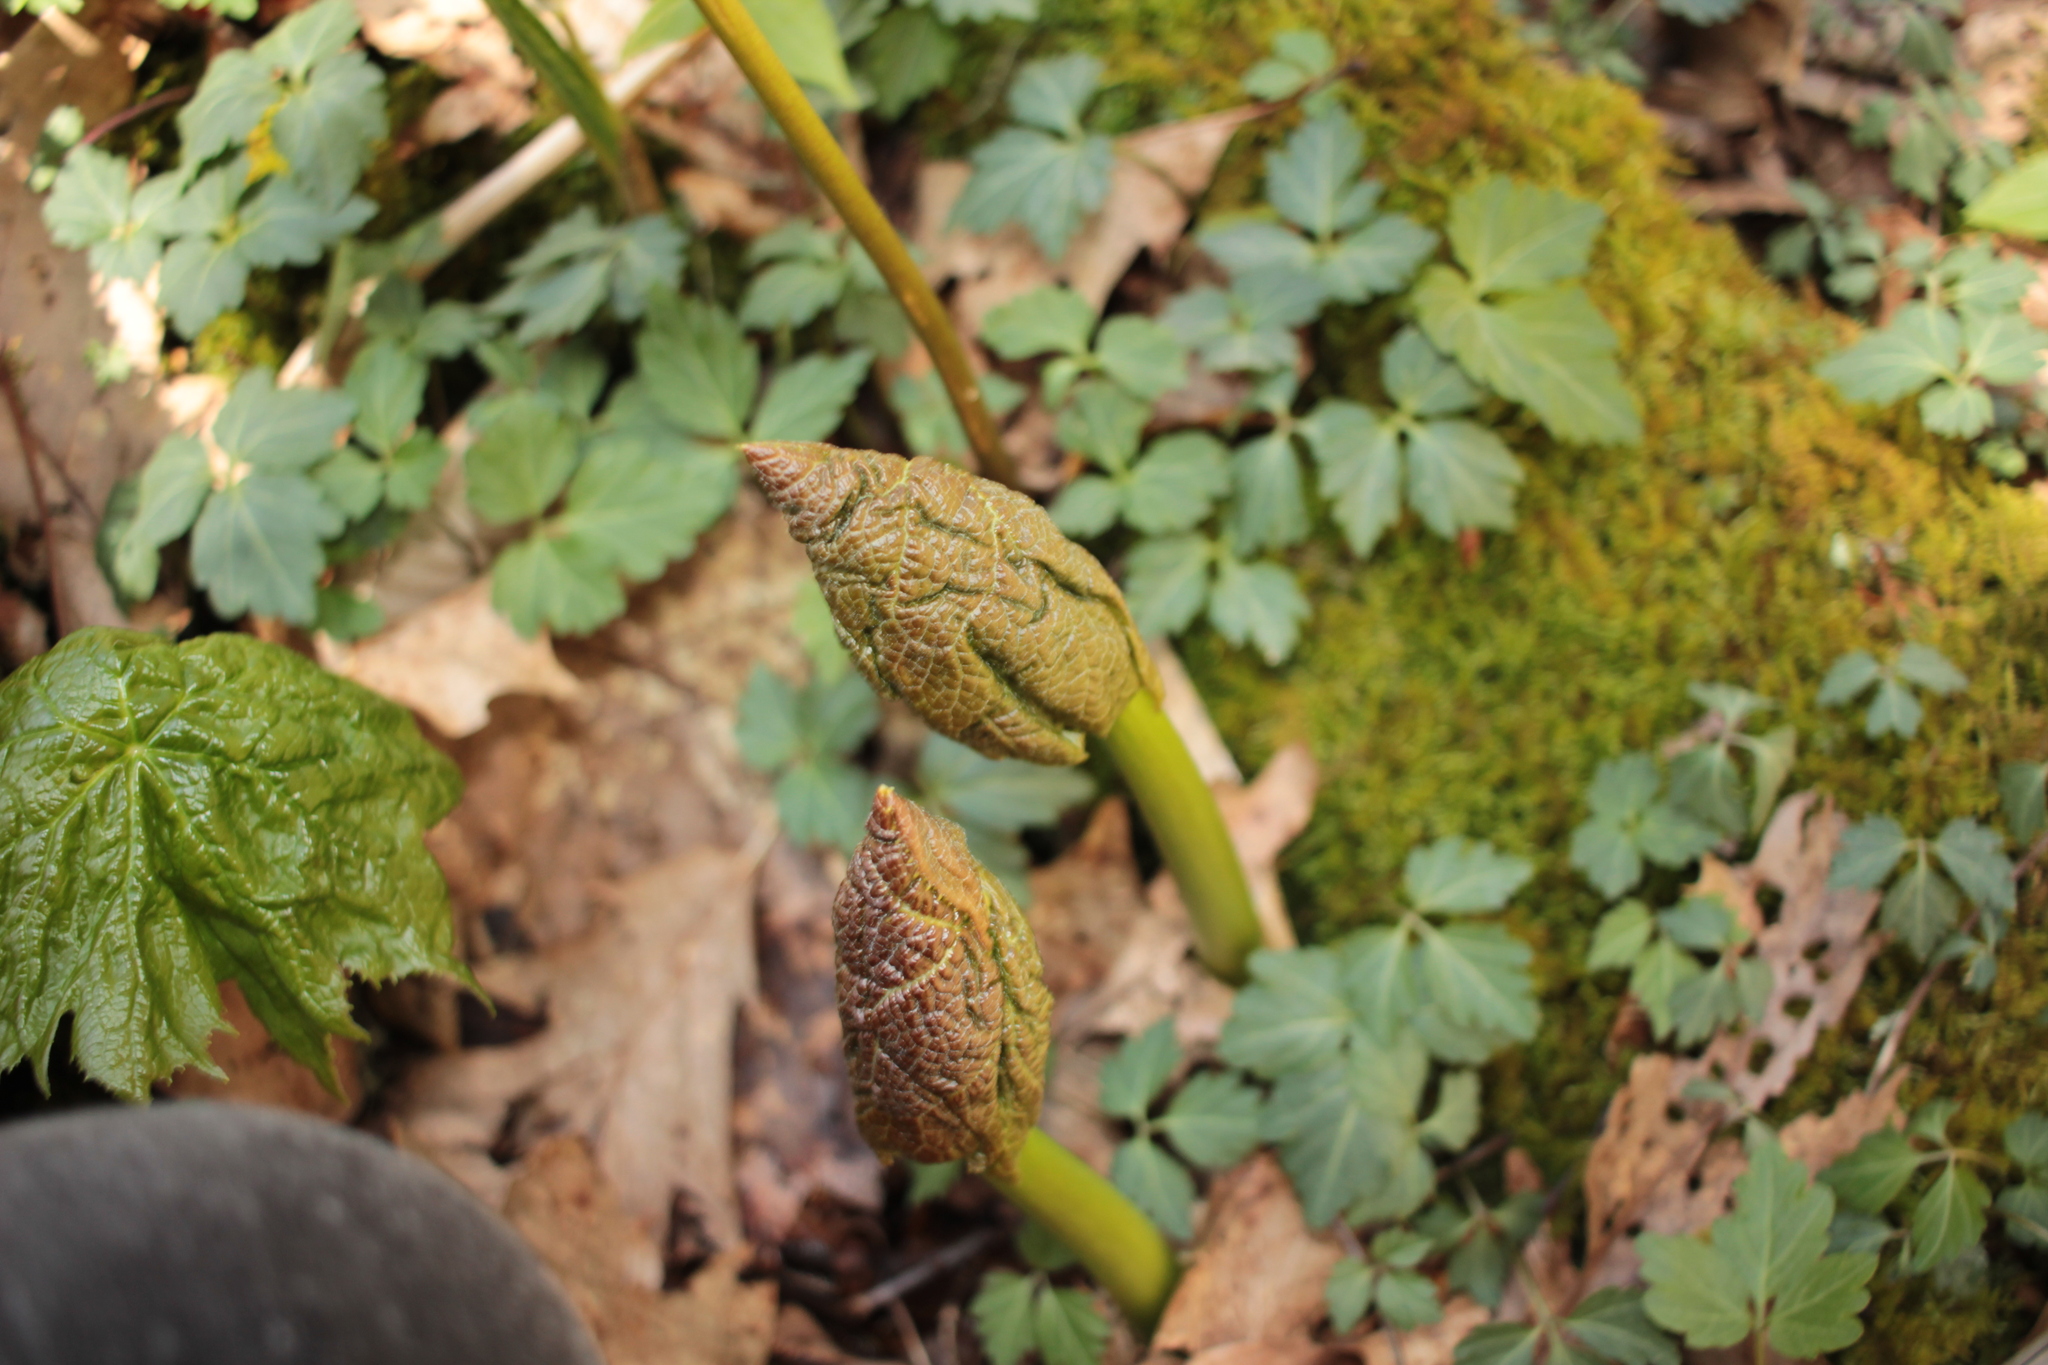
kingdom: Plantae
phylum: Tracheophyta
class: Magnoliopsida
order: Ranunculales
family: Berberidaceae
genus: Diphylleia
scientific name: Diphylleia cymosa
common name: Umbrella-leaf
